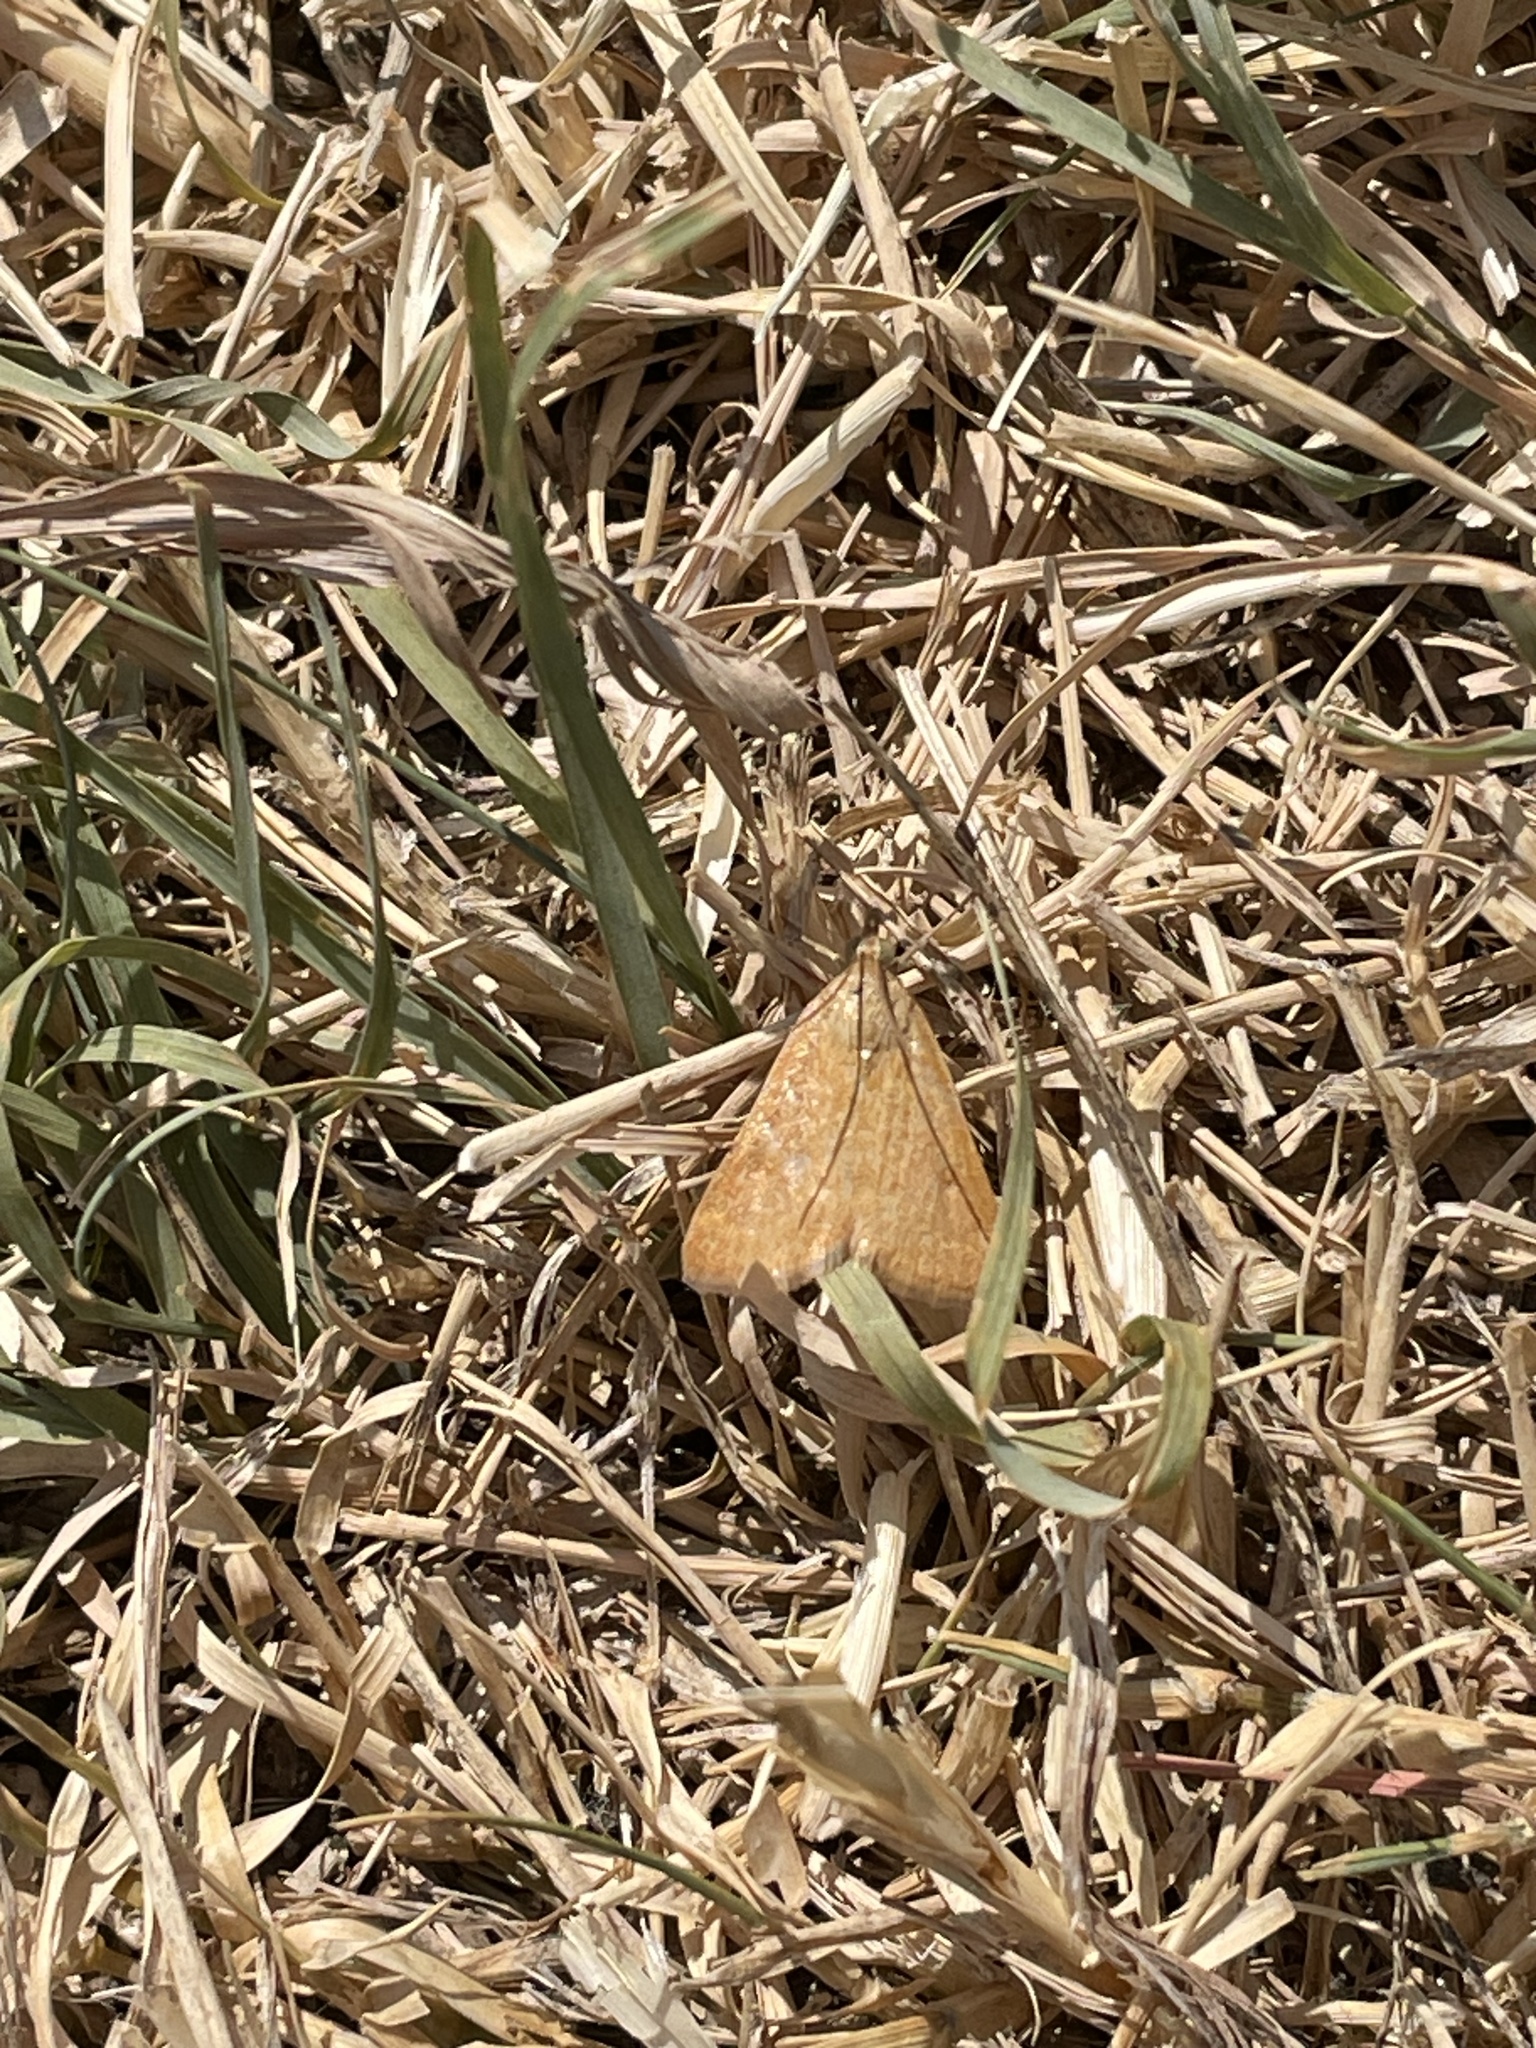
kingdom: Animalia
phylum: Arthropoda
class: Insecta
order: Lepidoptera
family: Crambidae
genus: Achyra
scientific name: Achyra rantalis
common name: Garden webworm
